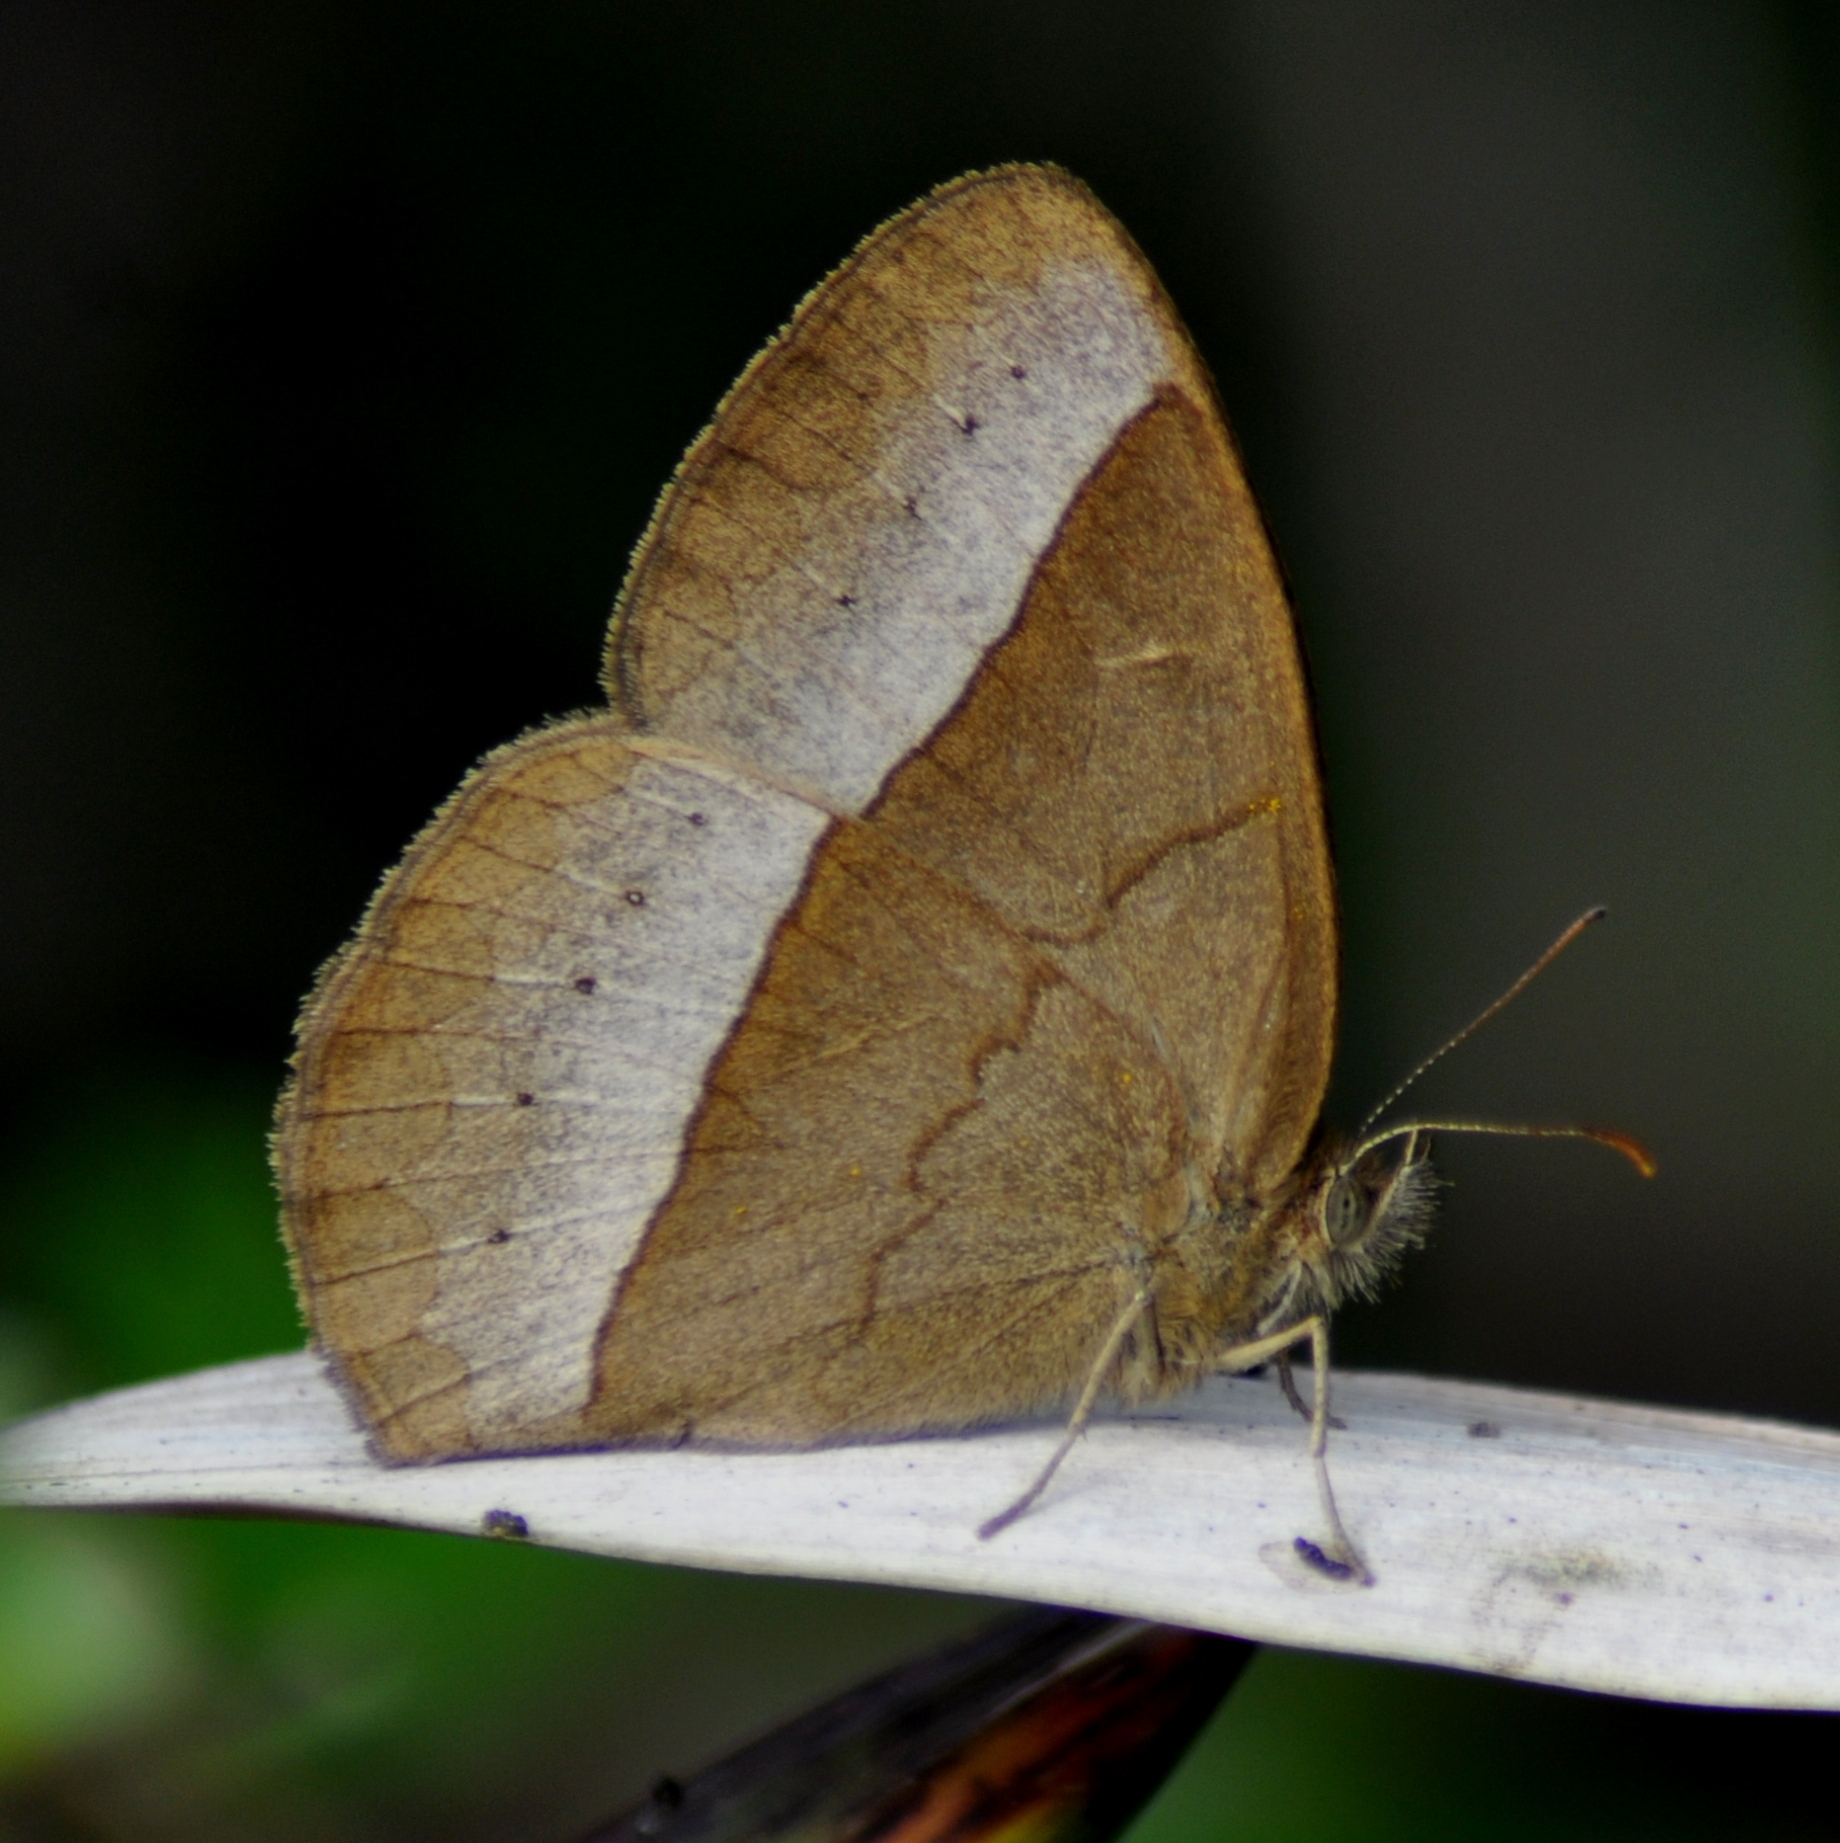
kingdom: Animalia
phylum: Arthropoda
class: Insecta
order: Lepidoptera
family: Nymphalidae
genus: Capronnieria
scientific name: Capronnieria galesus
